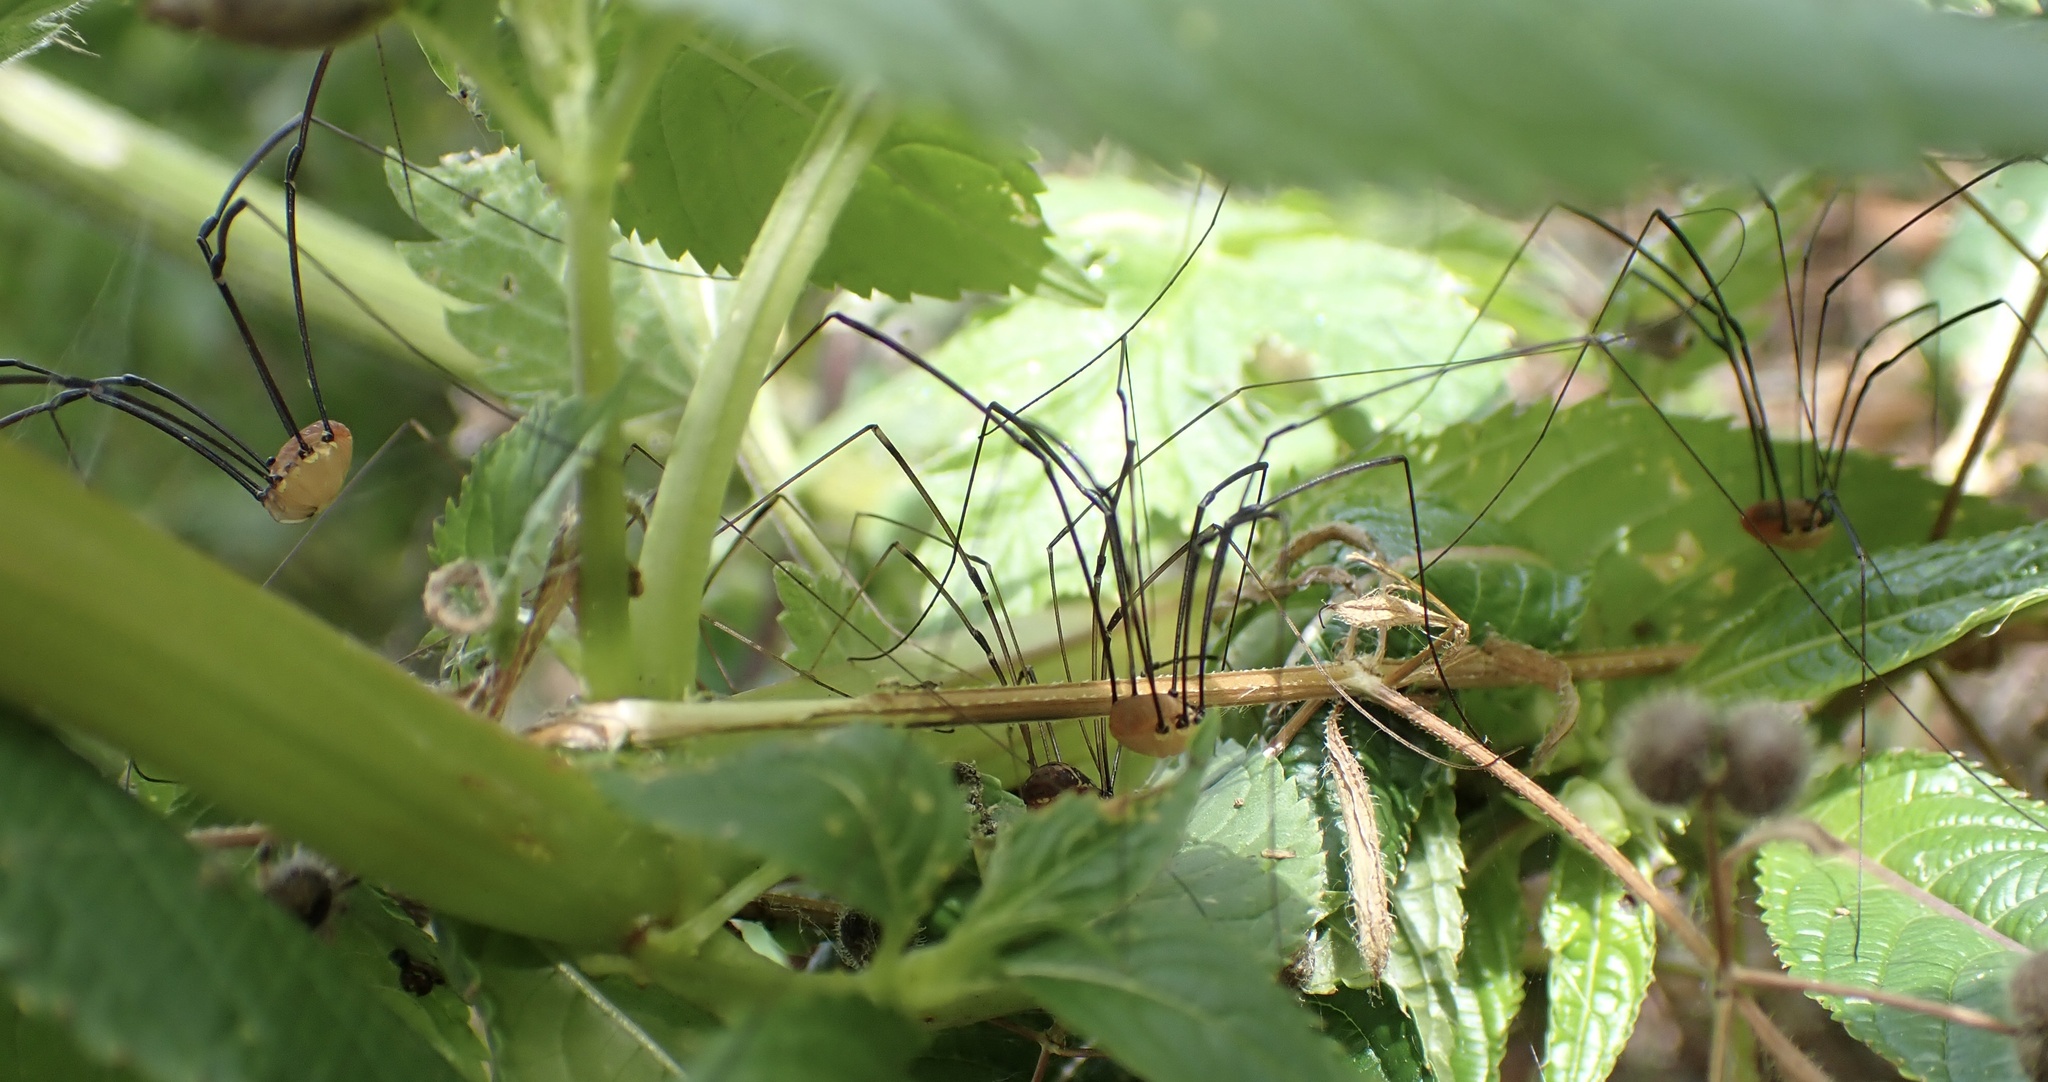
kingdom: Animalia
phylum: Arthropoda
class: Arachnida
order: Opiliones
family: Sclerosomatidae
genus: Leiobunum
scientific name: Leiobunum rotundum
